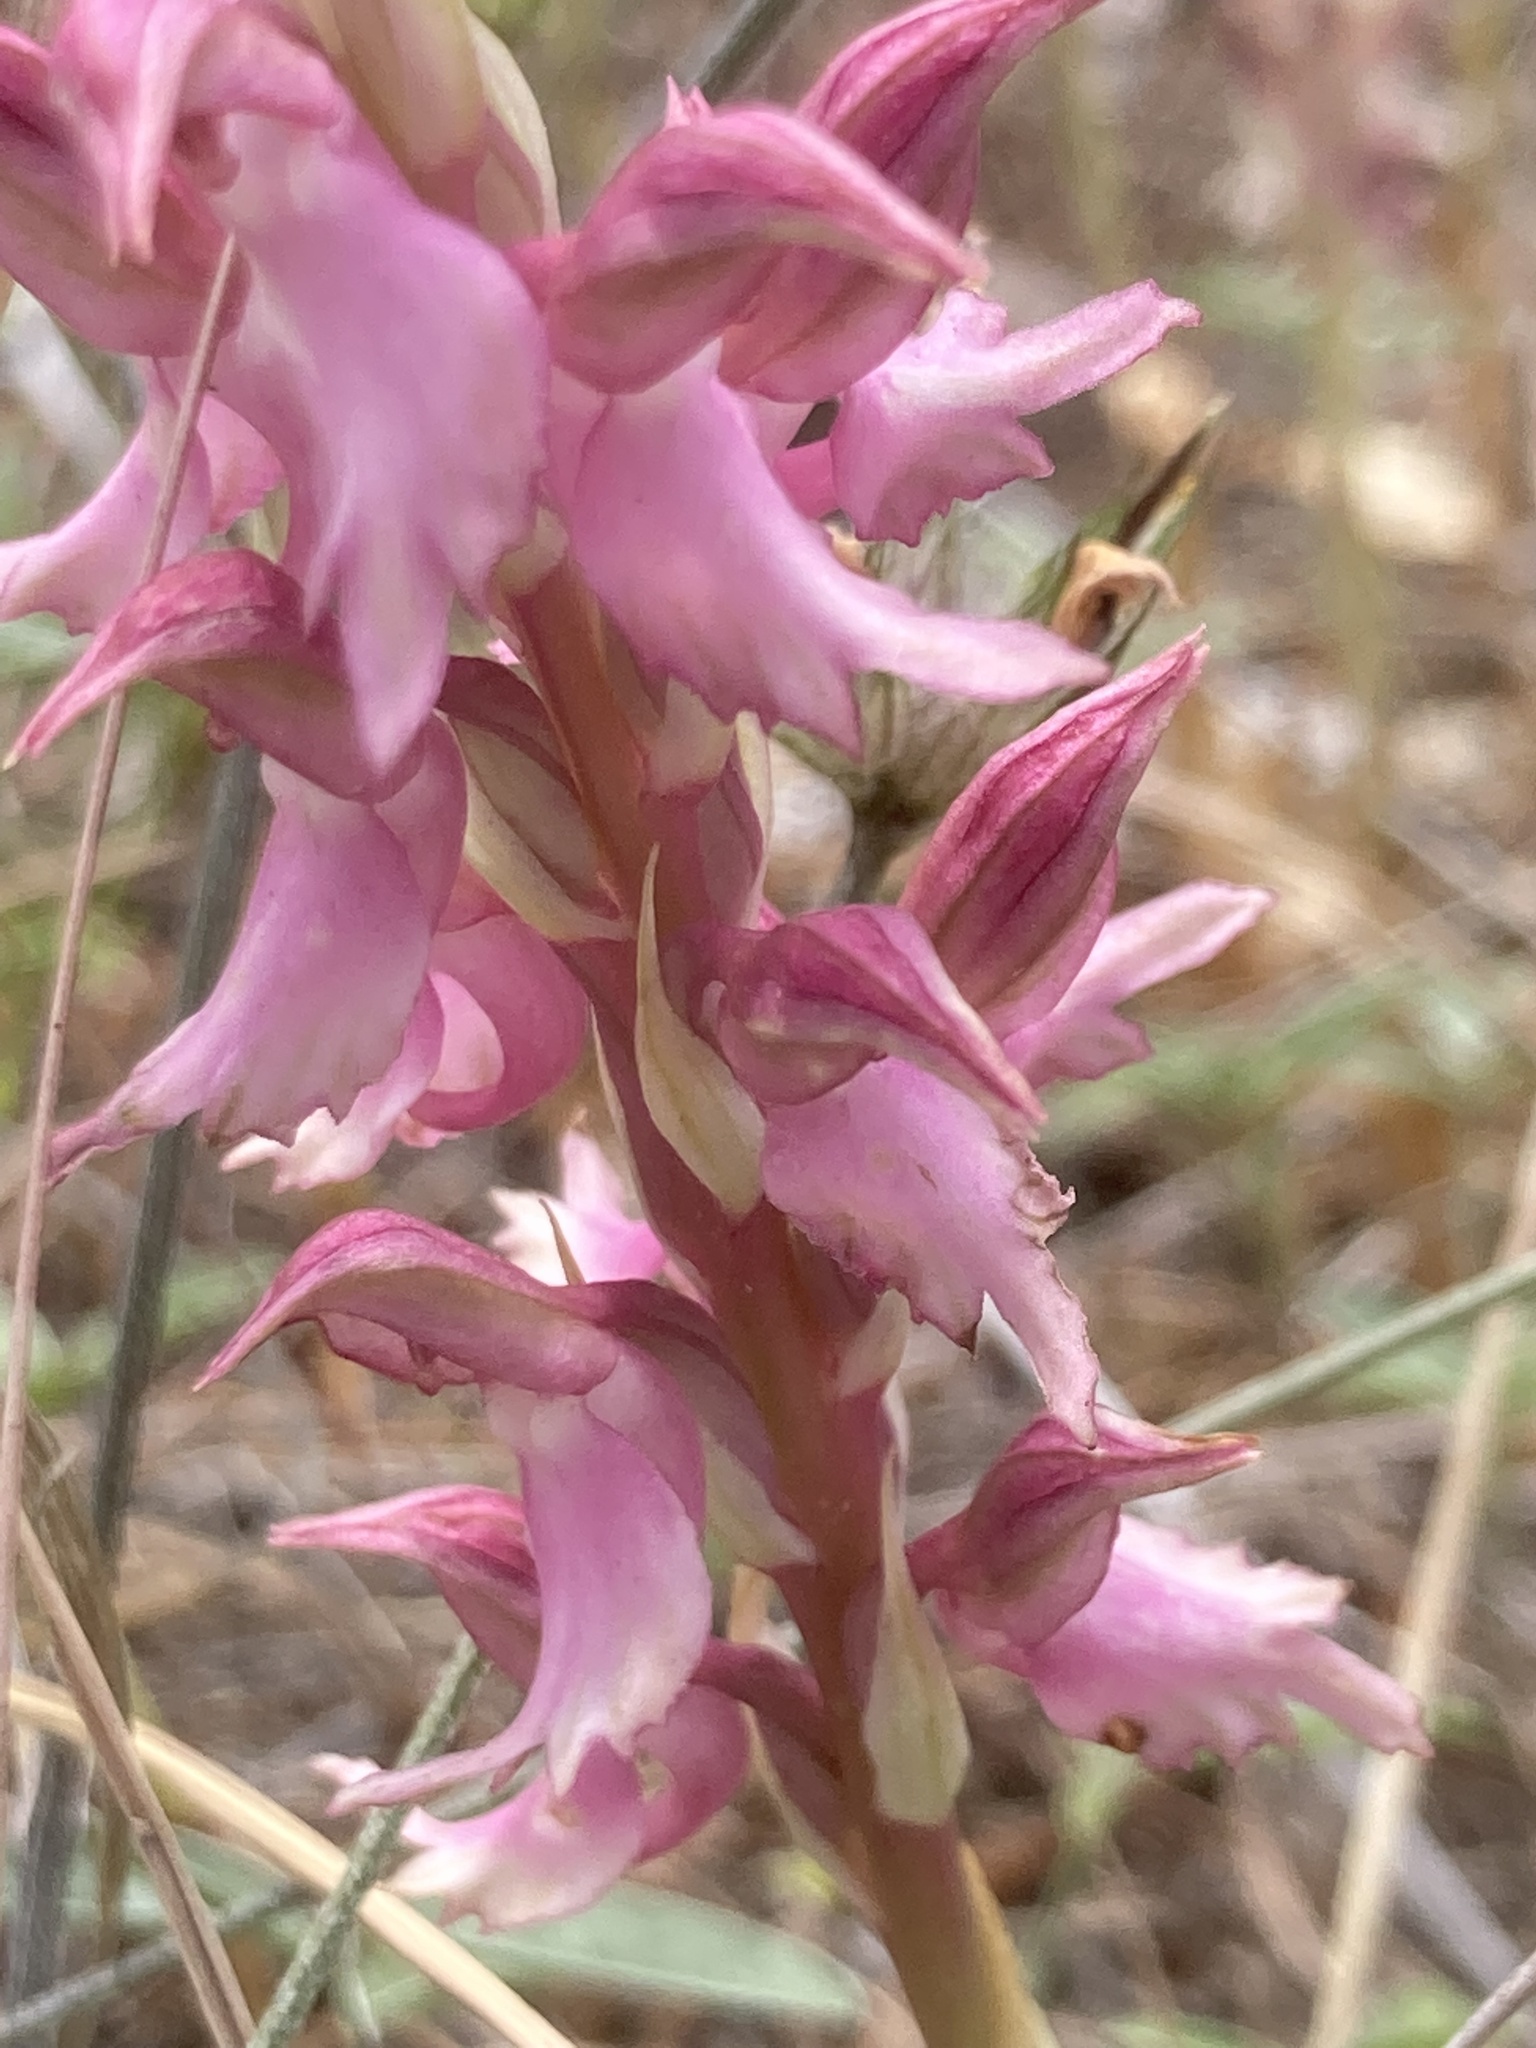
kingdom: Plantae
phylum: Tracheophyta
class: Liliopsida
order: Asparagales
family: Orchidaceae
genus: Anacamptis
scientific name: Anacamptis sancta
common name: Holy orchid
